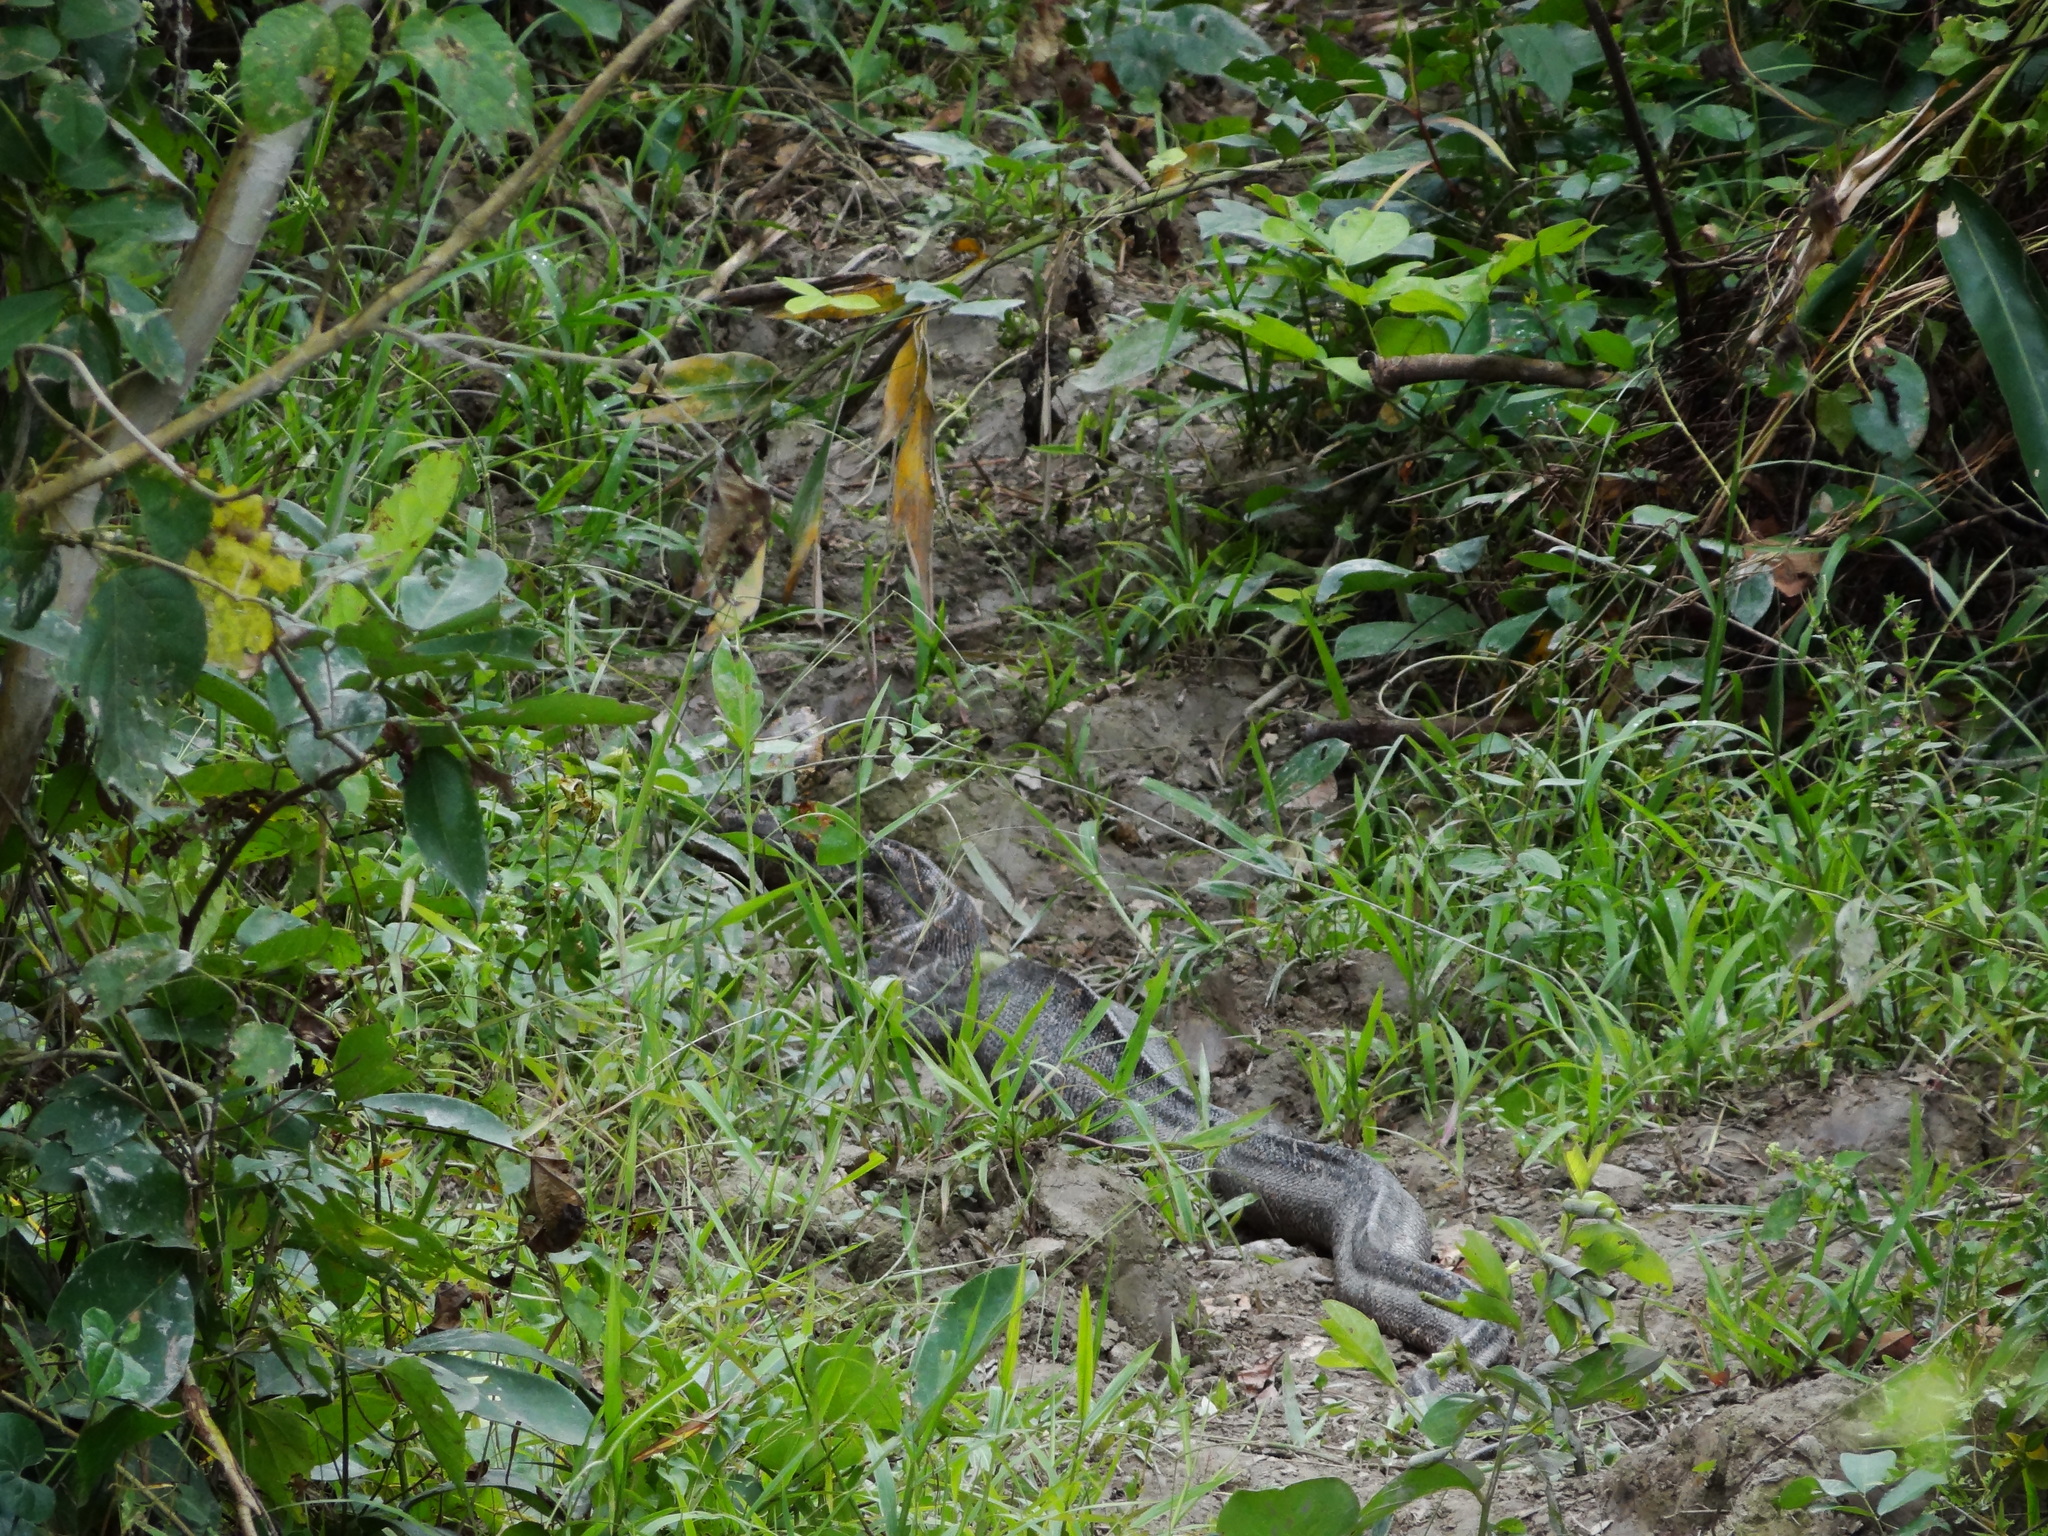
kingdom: Animalia
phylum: Chordata
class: Squamata
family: Pythonidae
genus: Python
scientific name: Python bivittatus
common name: Burmese python
